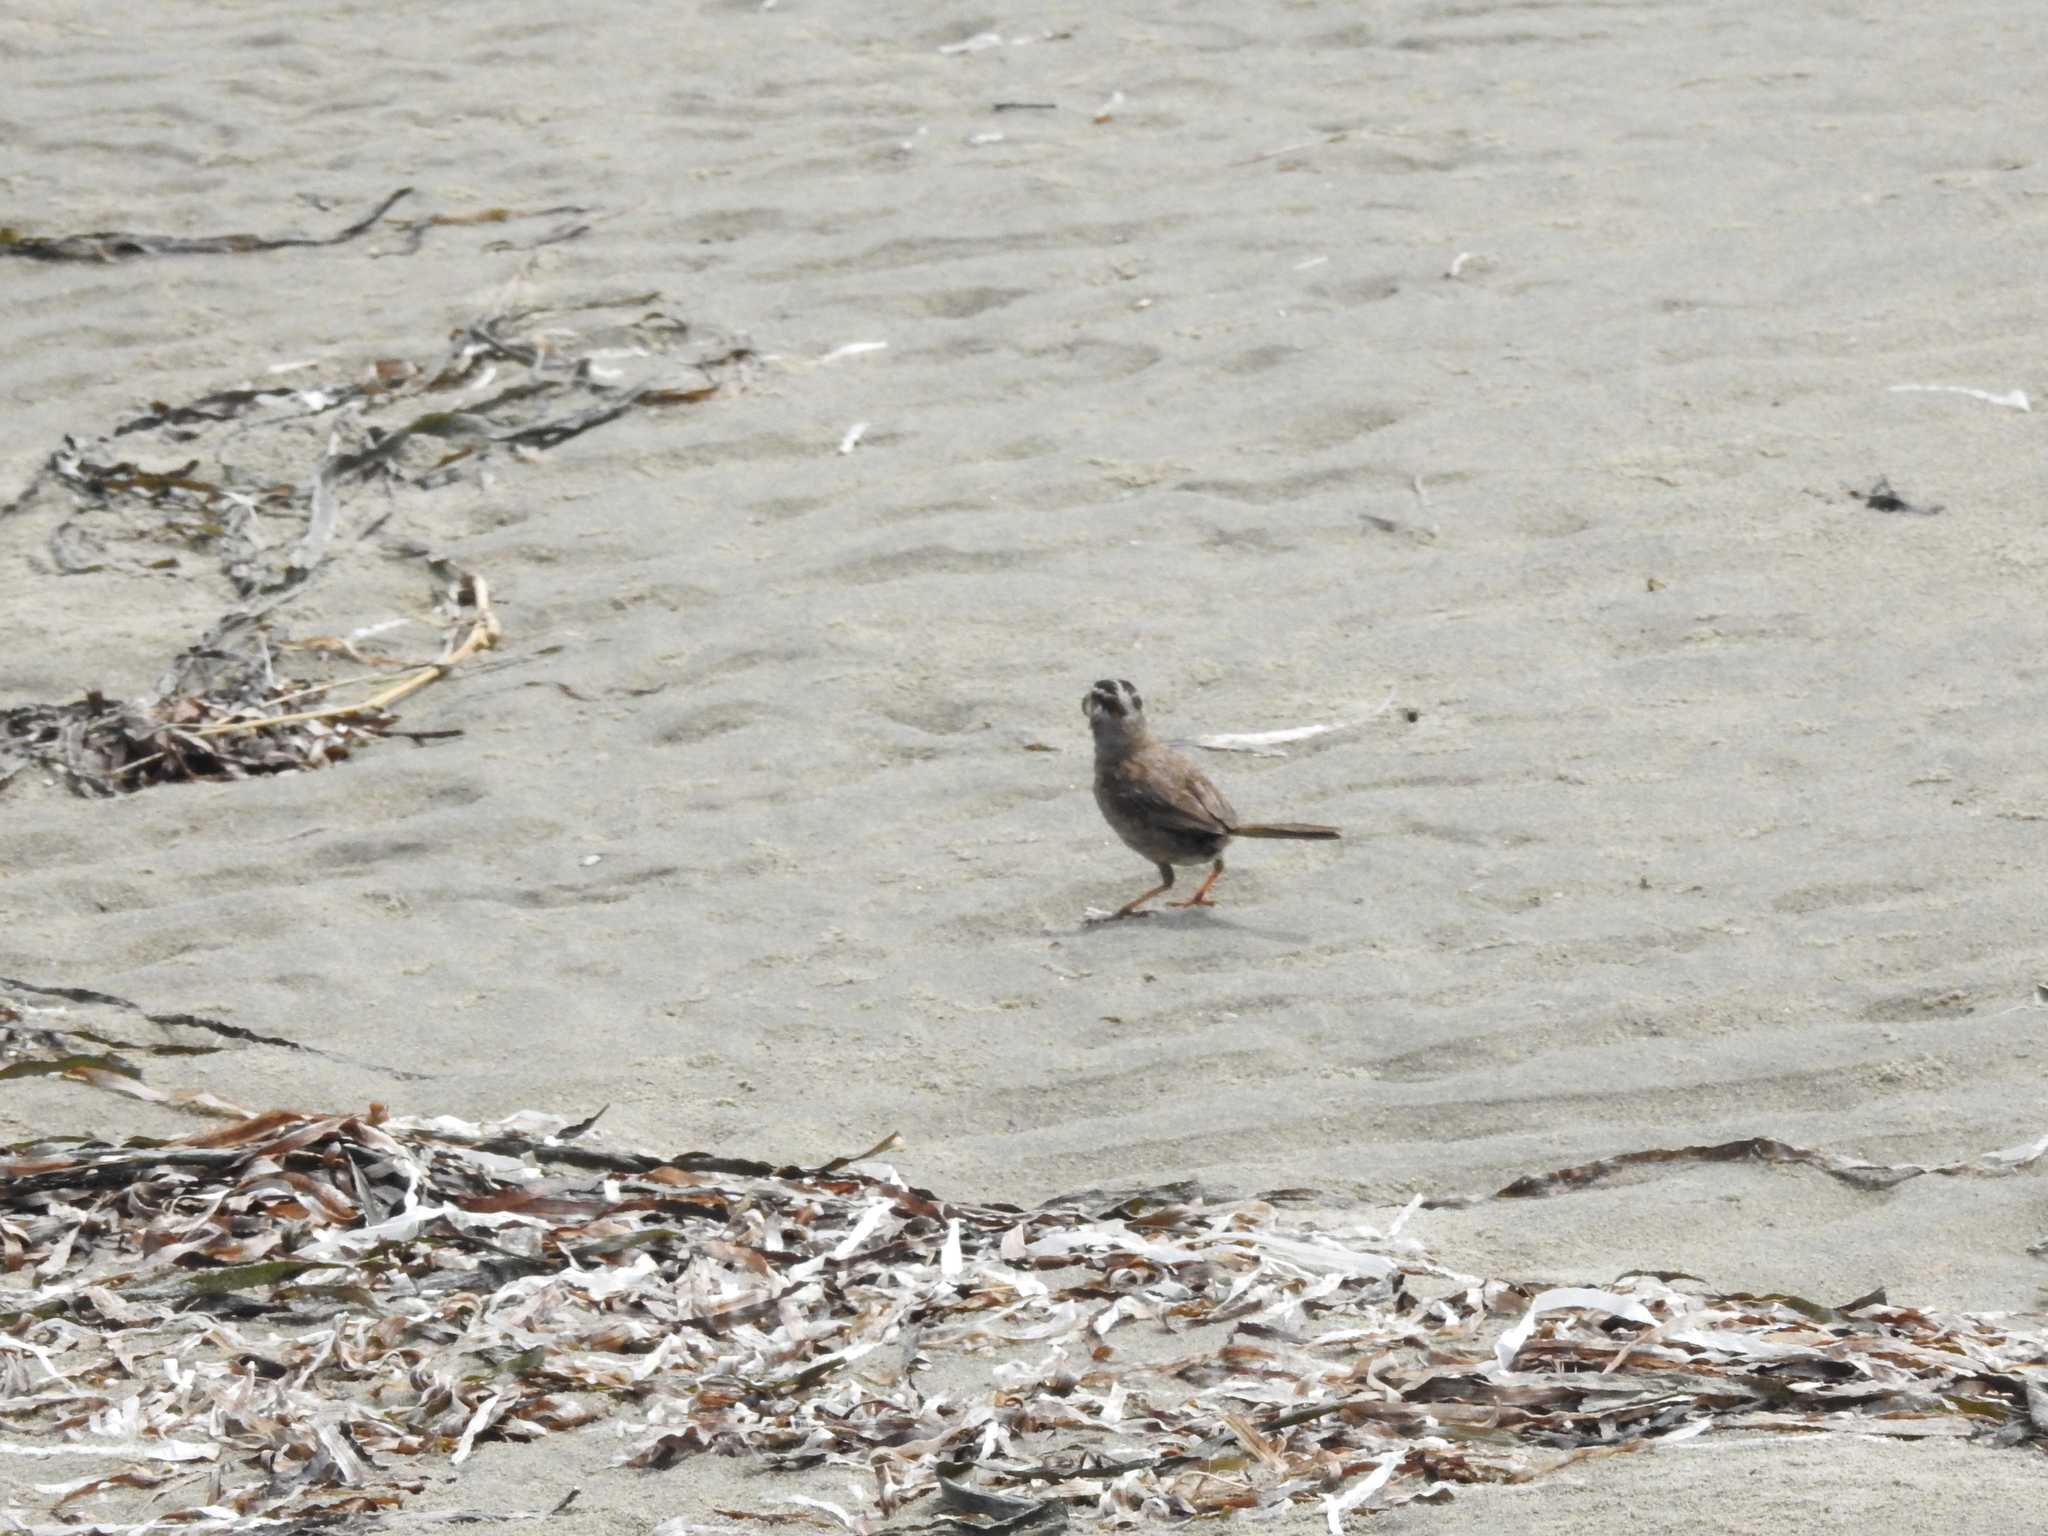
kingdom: Animalia
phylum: Chordata
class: Aves
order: Passeriformes
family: Passerellidae
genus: Zonotrichia
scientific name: Zonotrichia leucophrys
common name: White-crowned sparrow
